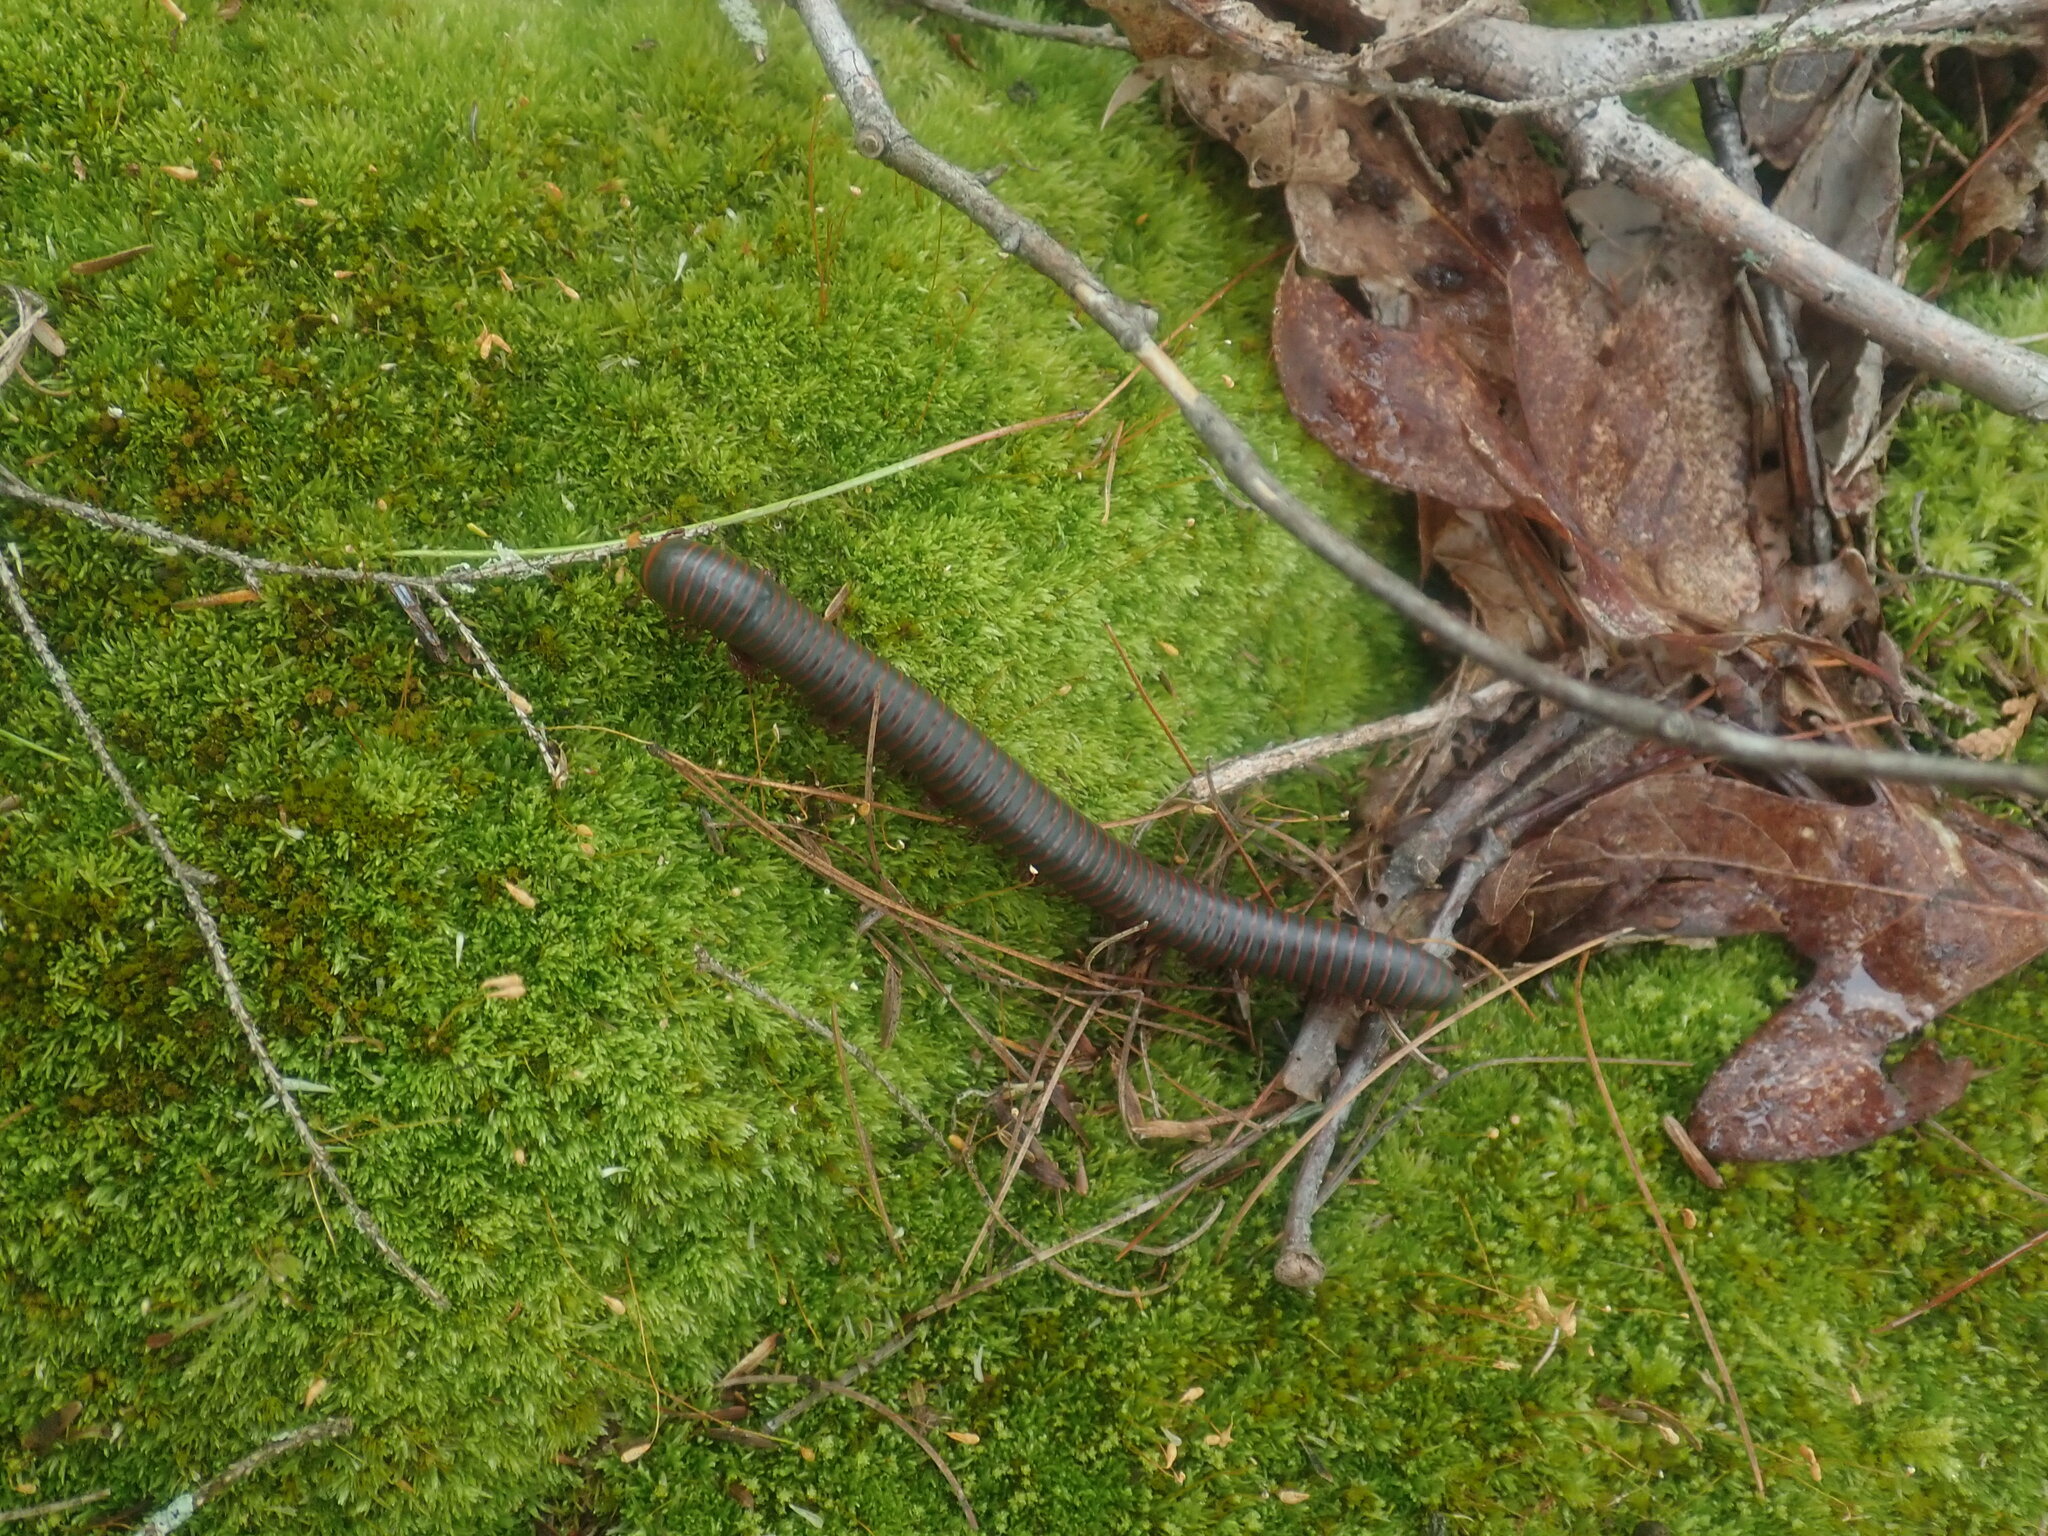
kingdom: Animalia
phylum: Arthropoda
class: Diplopoda
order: Spirobolida
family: Spirobolidae
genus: Narceus
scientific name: Narceus americanus
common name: American giant millipede
